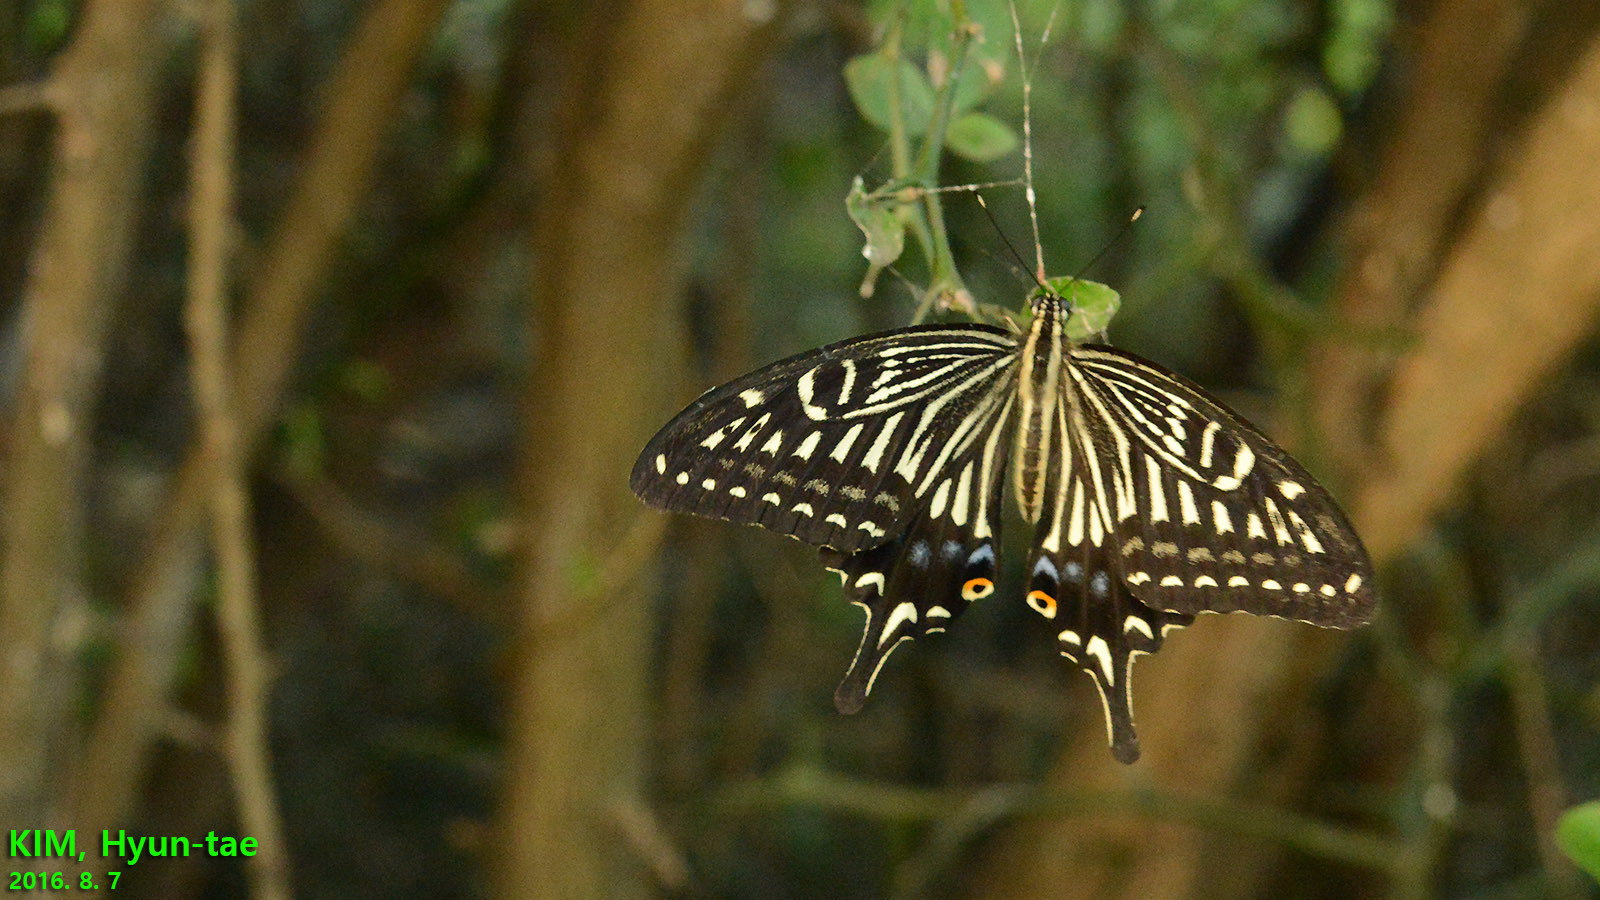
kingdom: Animalia
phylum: Arthropoda
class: Insecta
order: Lepidoptera
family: Papilionidae
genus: Papilio
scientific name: Papilio xuthus
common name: Asian swallowtail
